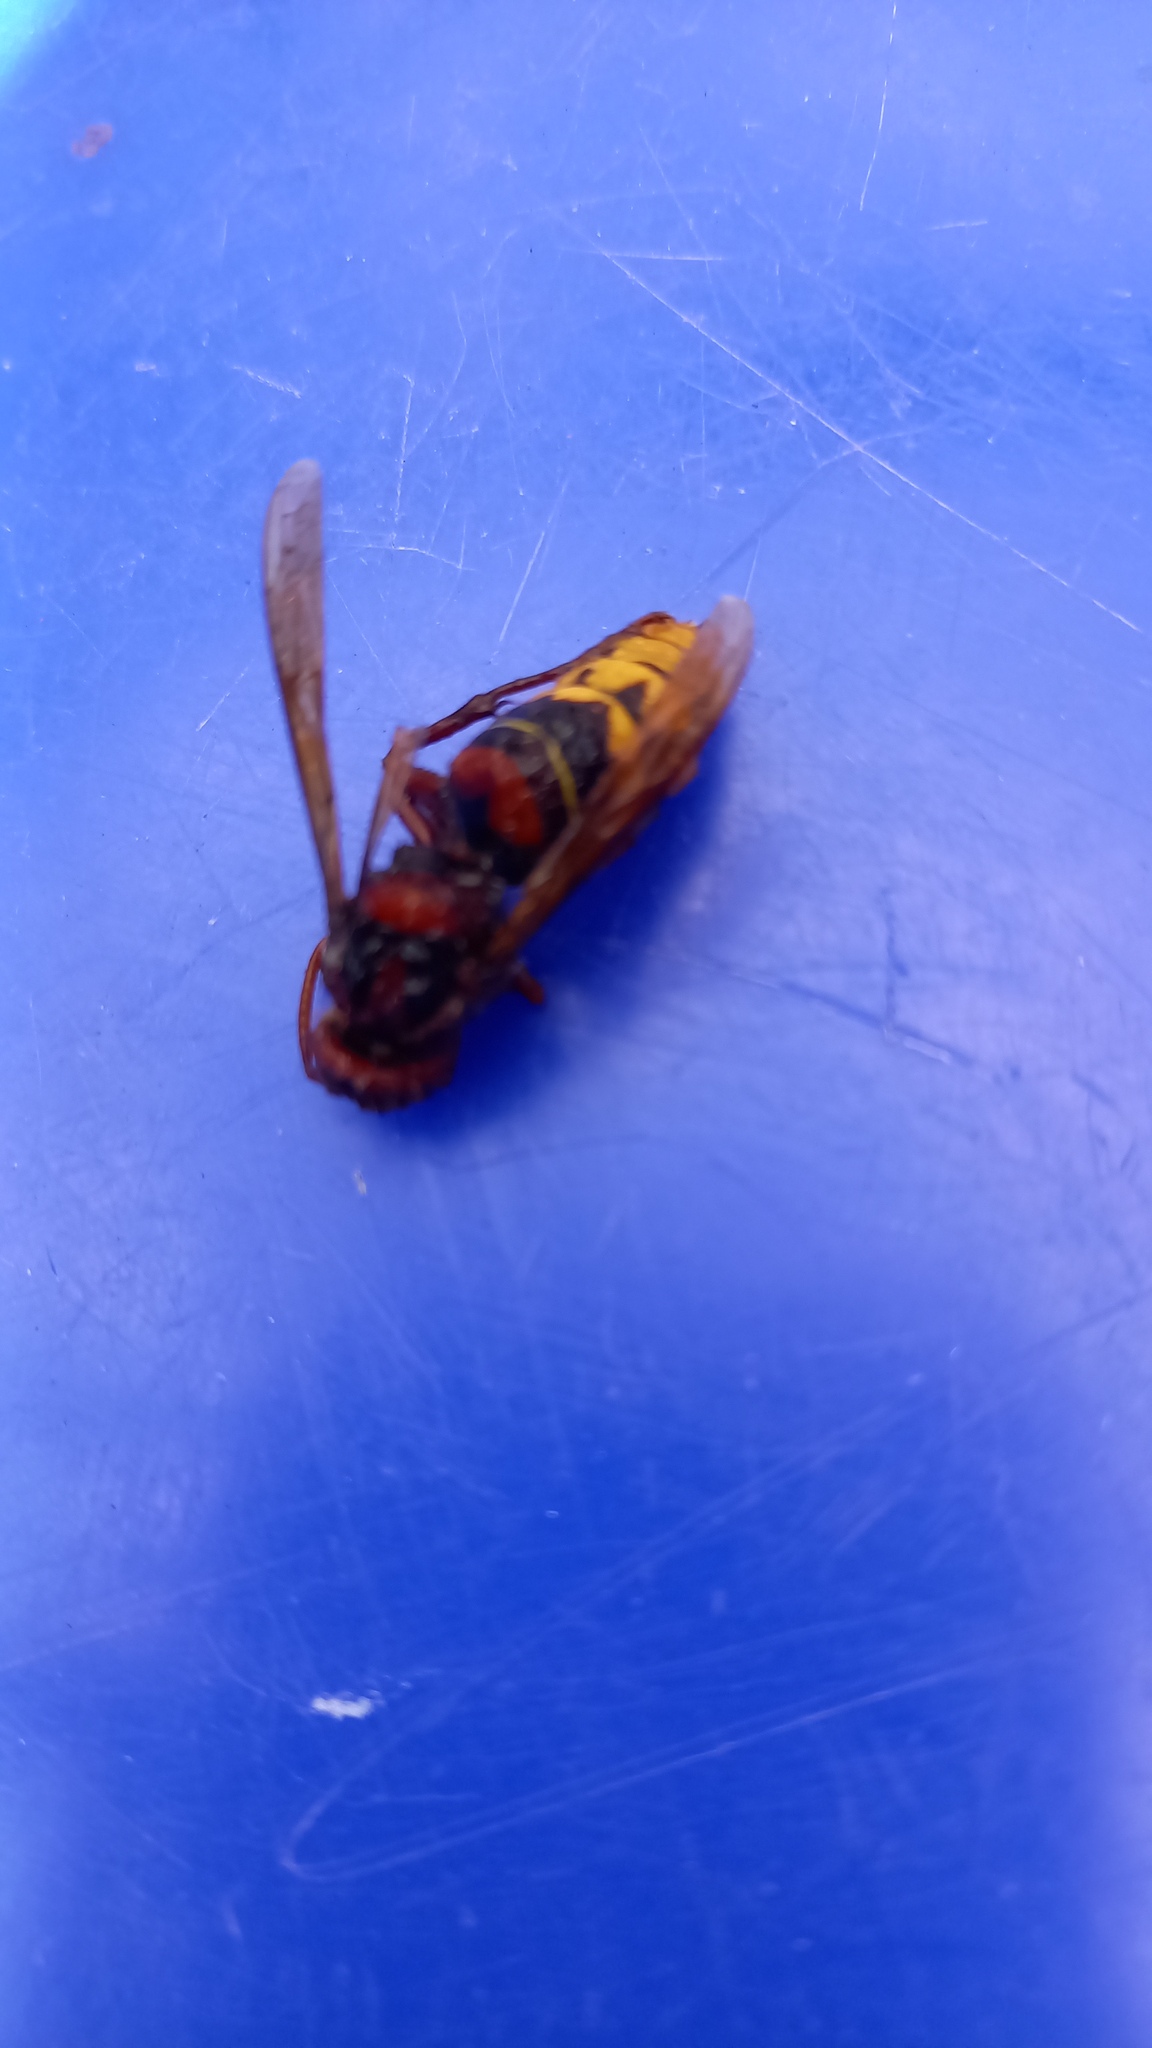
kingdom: Animalia
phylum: Arthropoda
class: Insecta
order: Hymenoptera
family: Vespidae
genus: Vespa
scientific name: Vespa crabro
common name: Hornet
